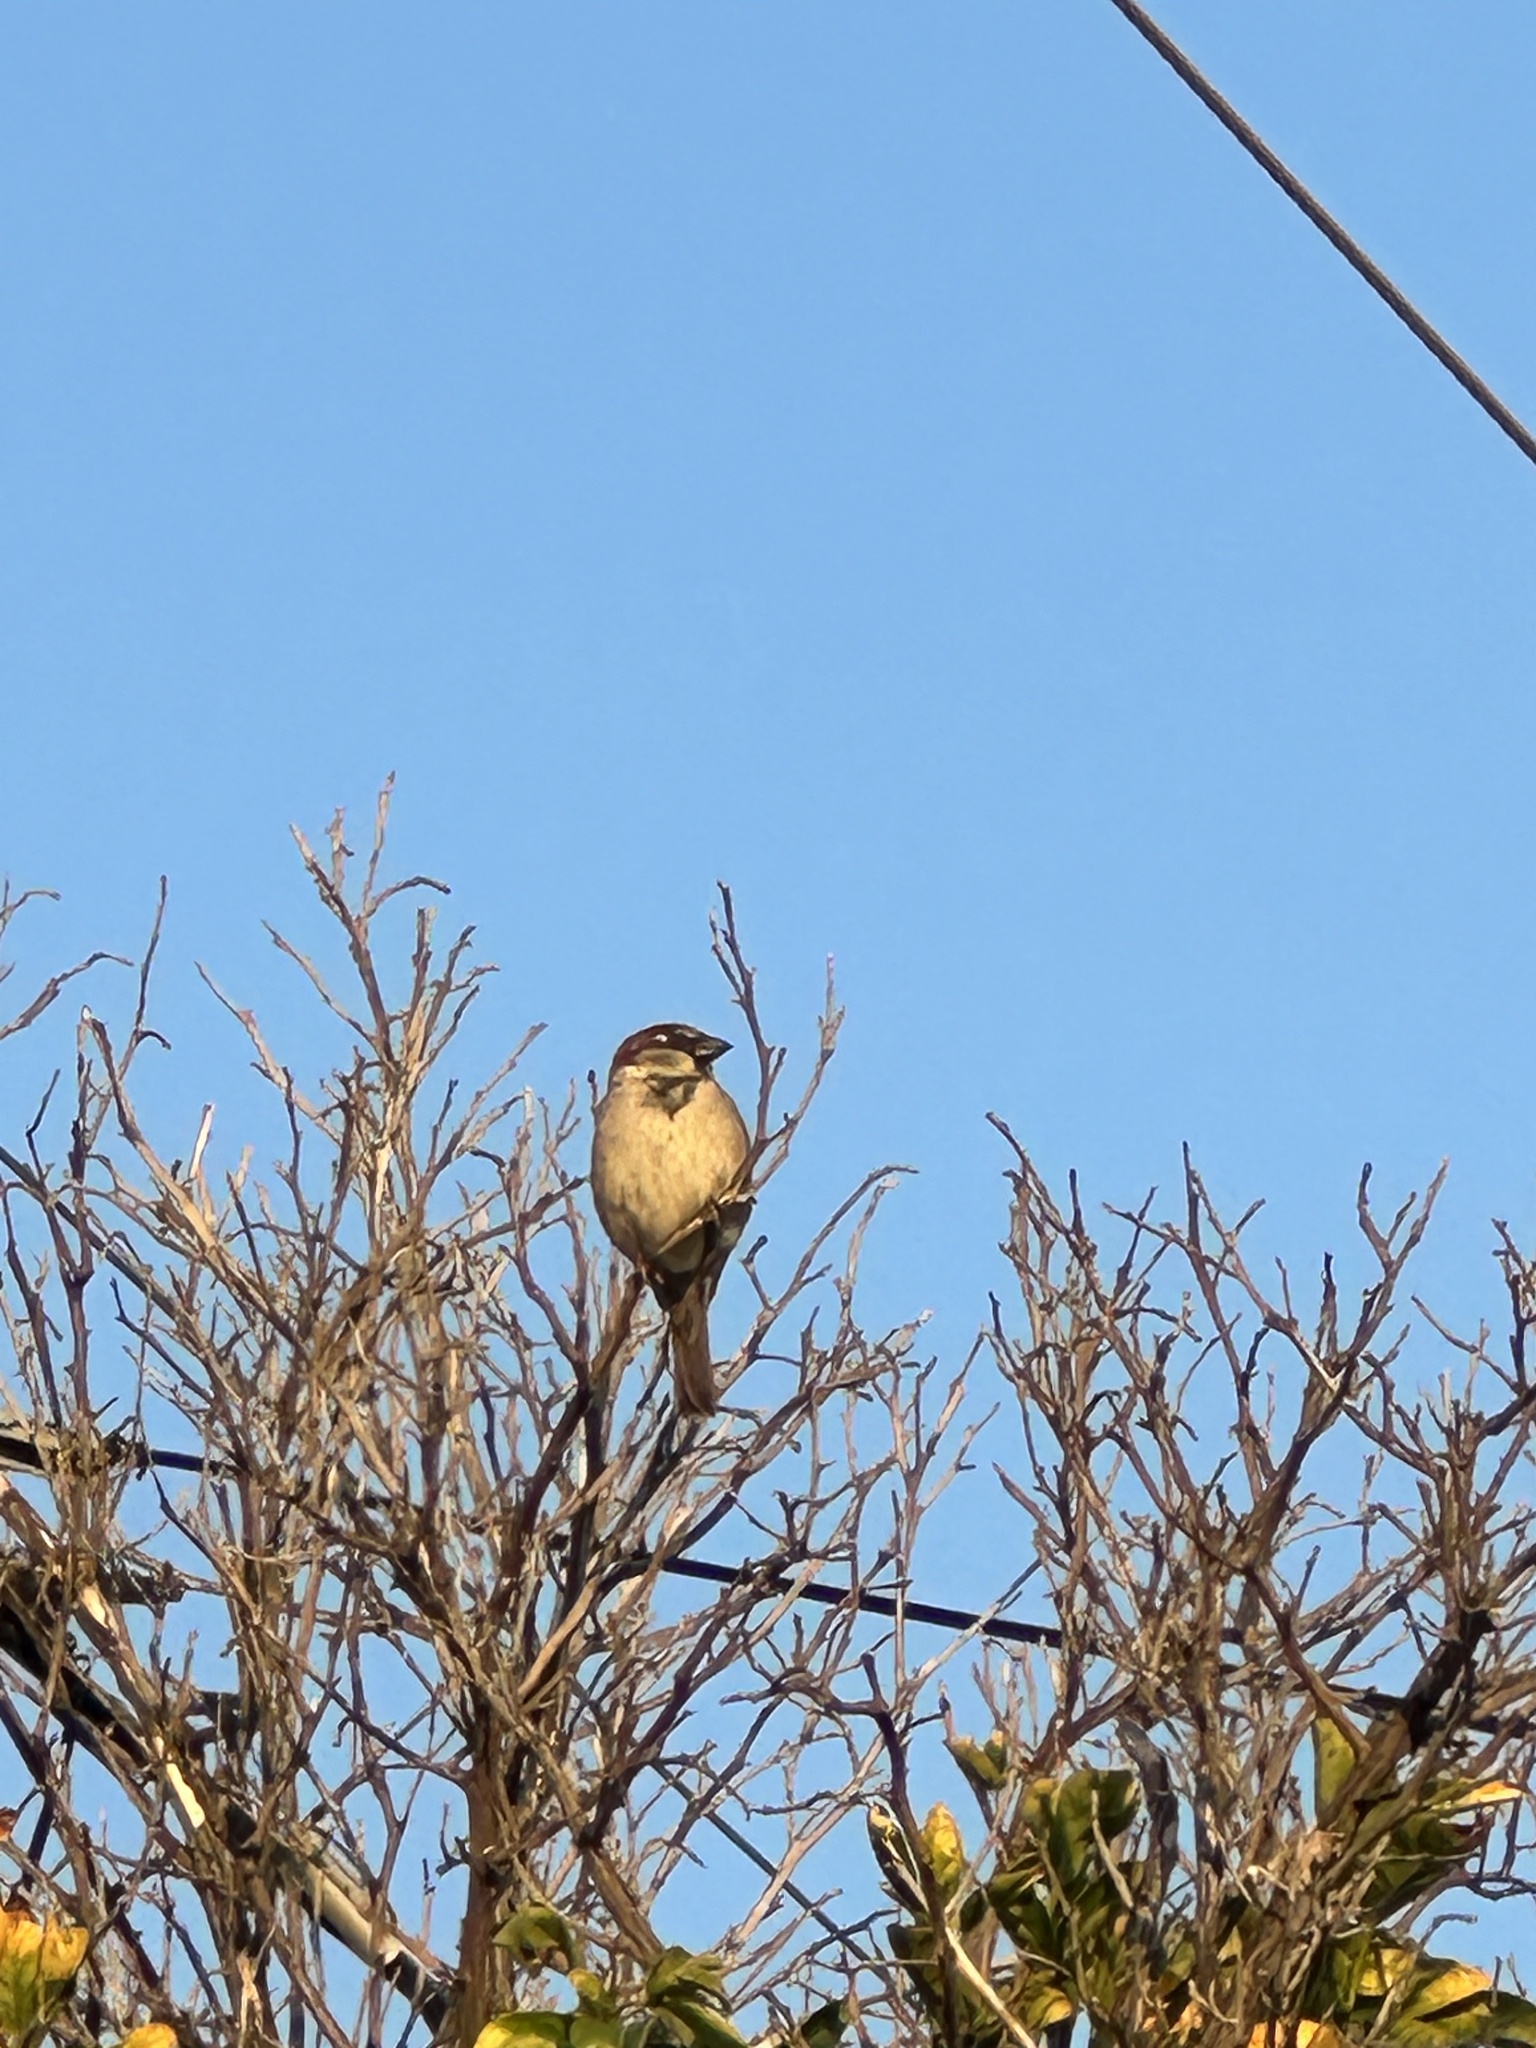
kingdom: Animalia
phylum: Chordata
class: Aves
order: Passeriformes
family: Passeridae
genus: Passer
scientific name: Passer domesticus
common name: House sparrow
